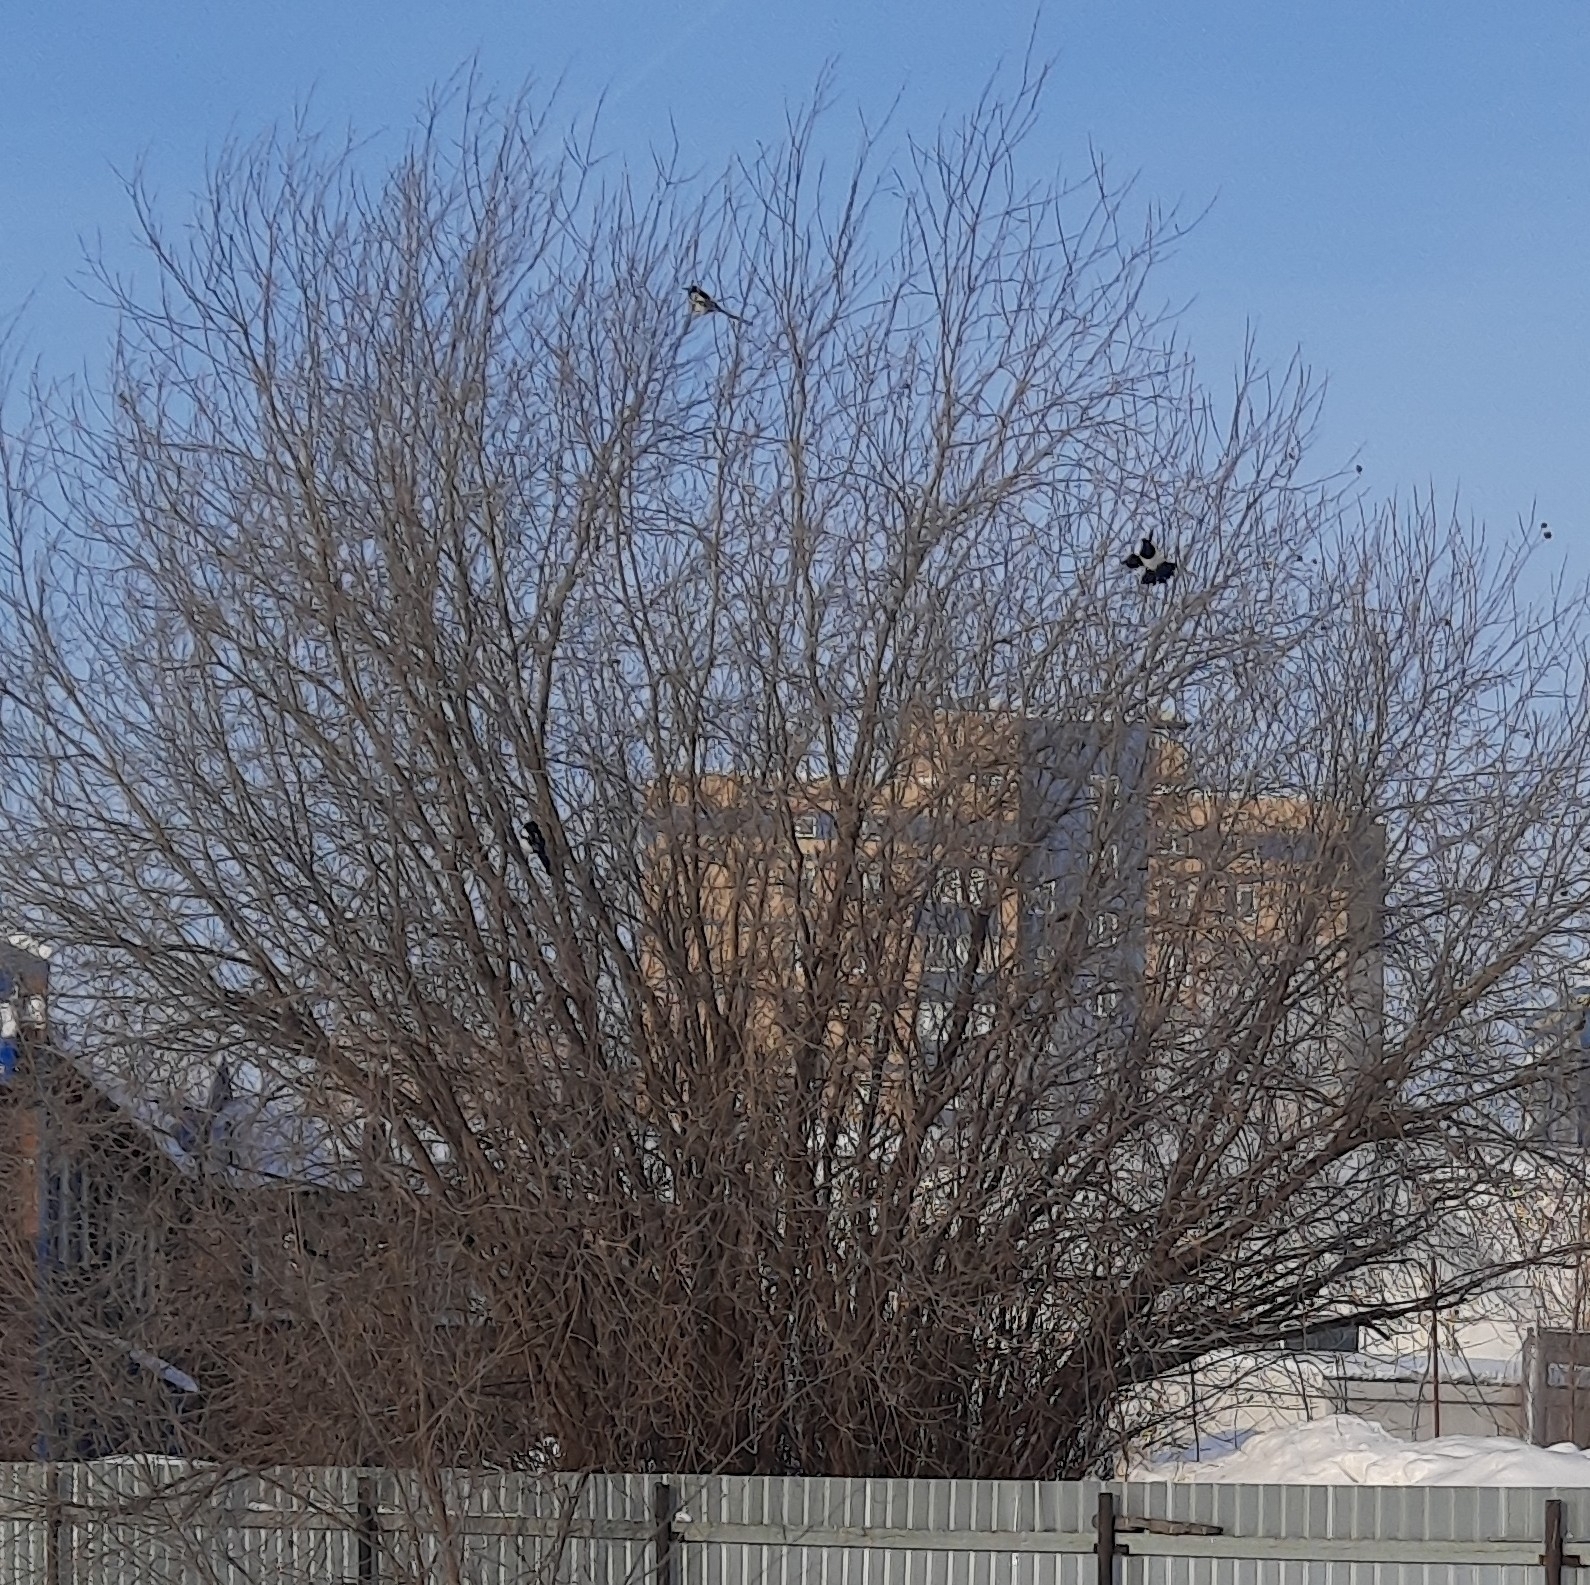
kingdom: Animalia
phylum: Chordata
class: Aves
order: Passeriformes
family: Corvidae
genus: Pica
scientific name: Pica pica
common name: Eurasian magpie
